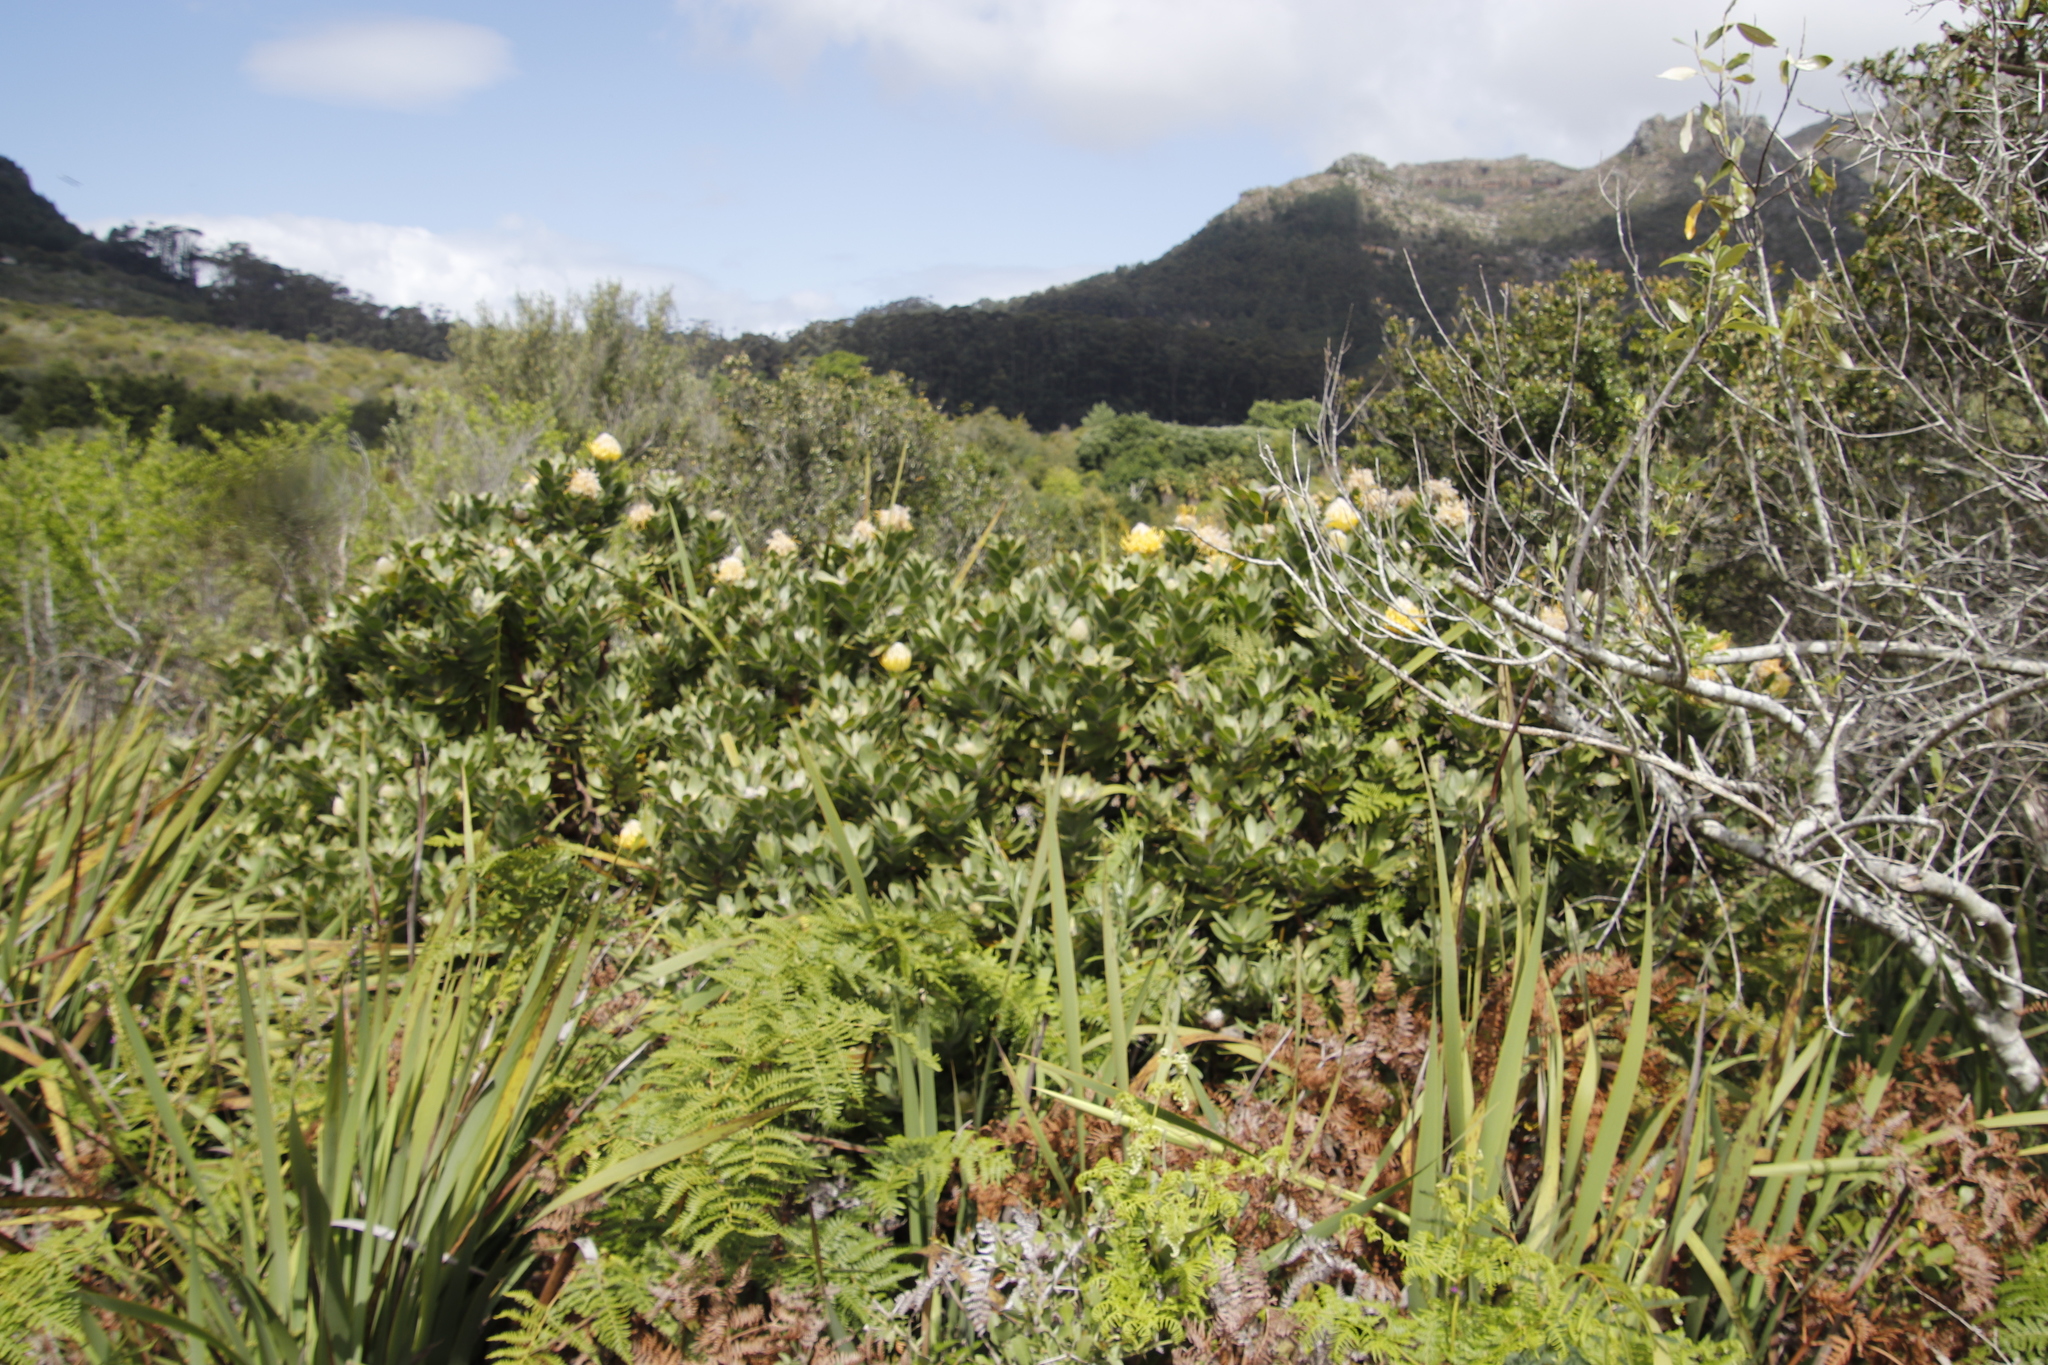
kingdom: Plantae
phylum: Tracheophyta
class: Magnoliopsida
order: Proteales
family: Proteaceae
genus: Leucospermum
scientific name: Leucospermum conocarpodendron
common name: Tree pincushion
